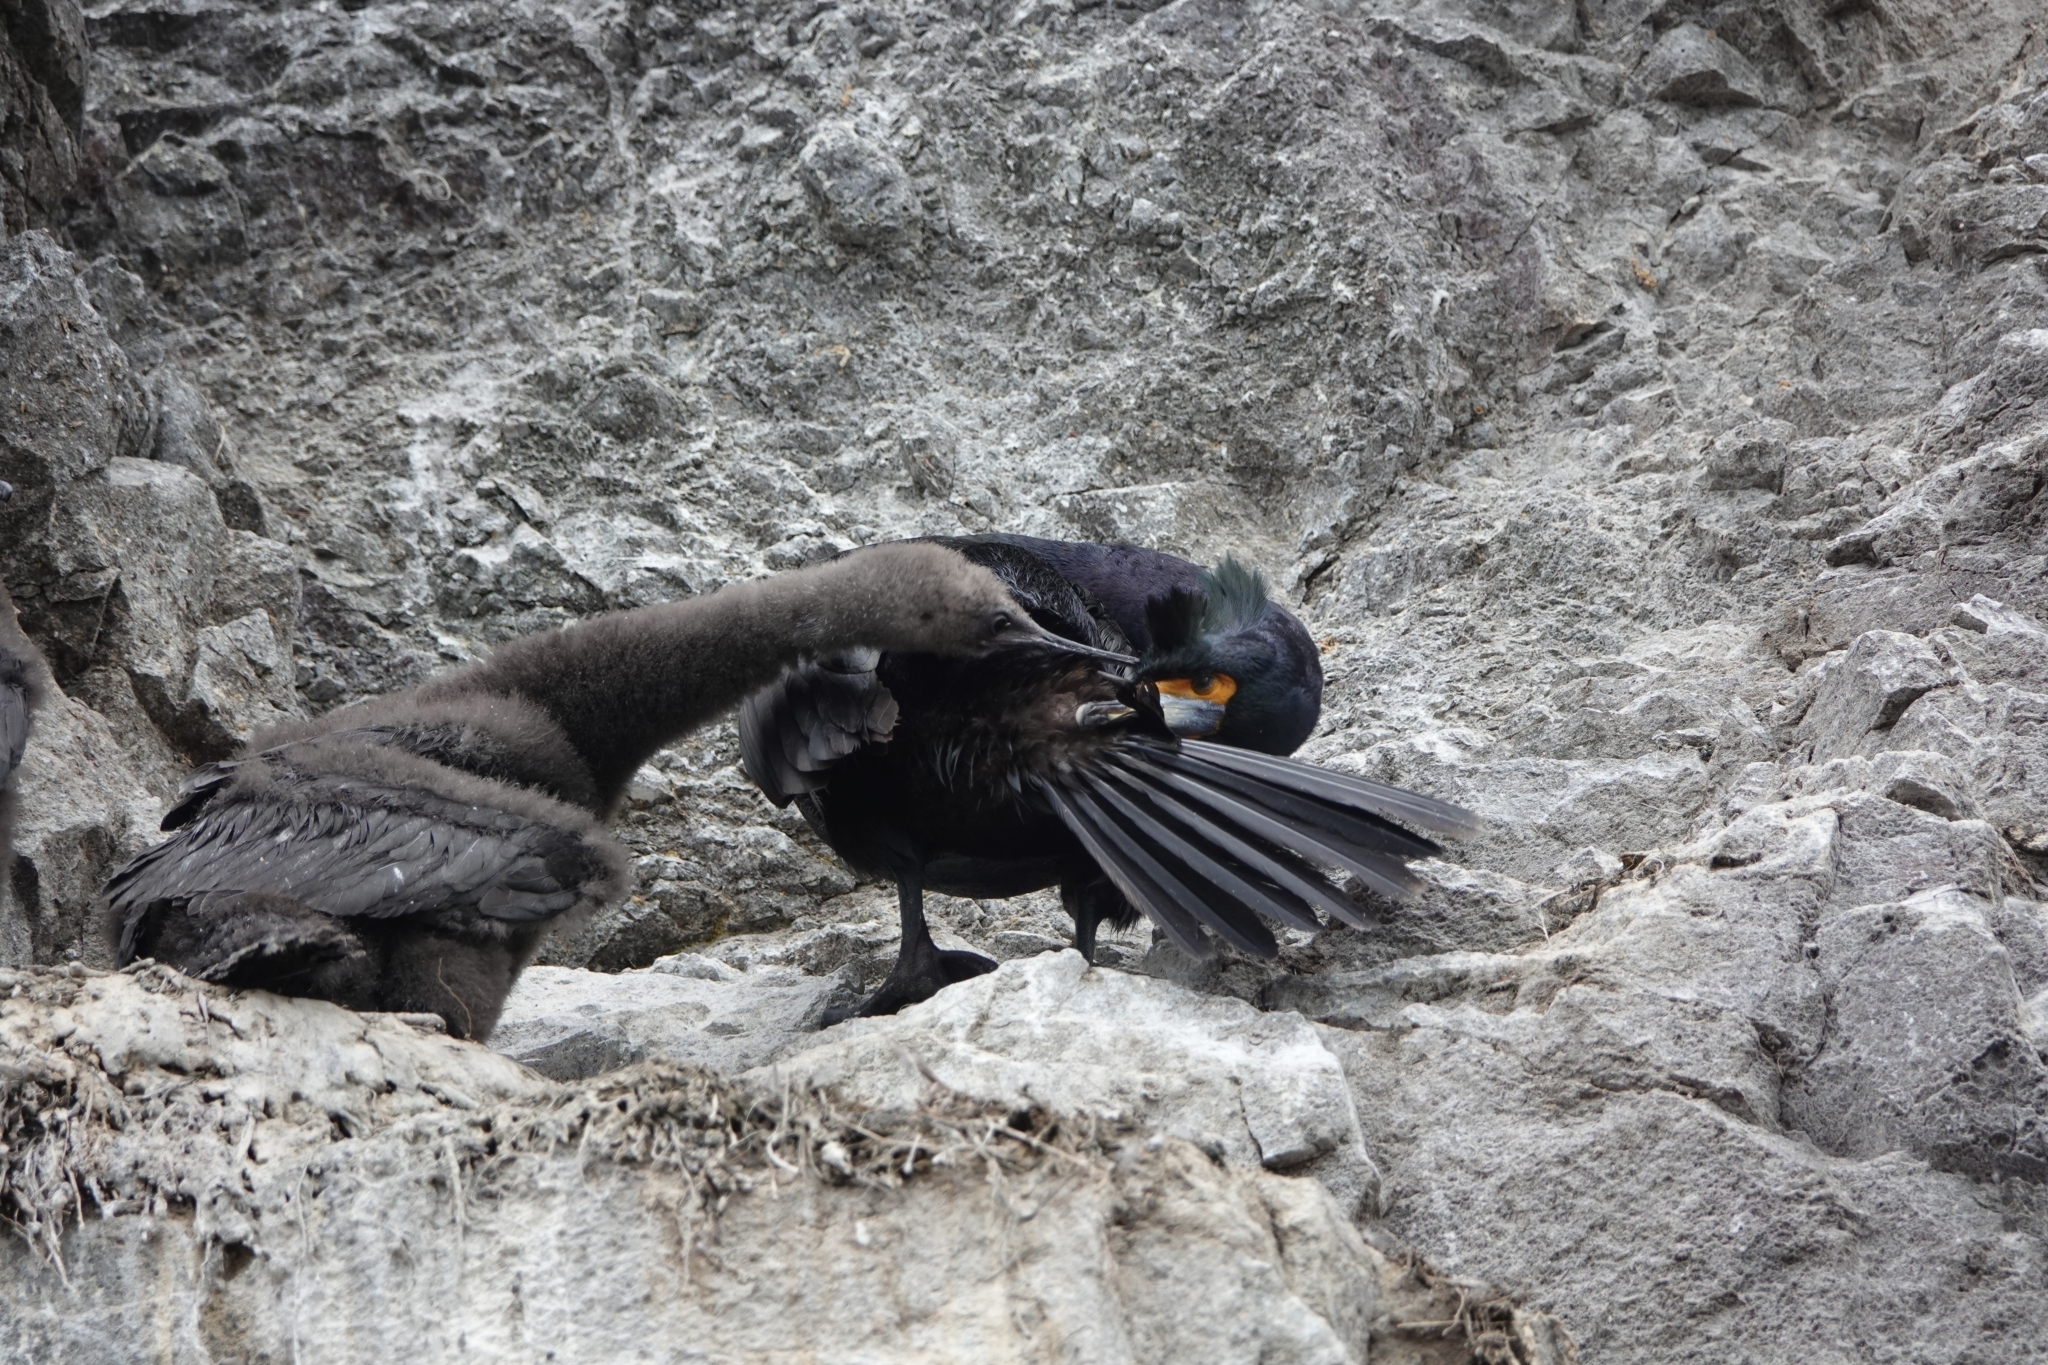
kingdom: Animalia
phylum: Chordata
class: Aves
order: Suliformes
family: Phalacrocoracidae
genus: Phalacrocorax
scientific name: Phalacrocorax urile
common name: Red-faced cormorant
